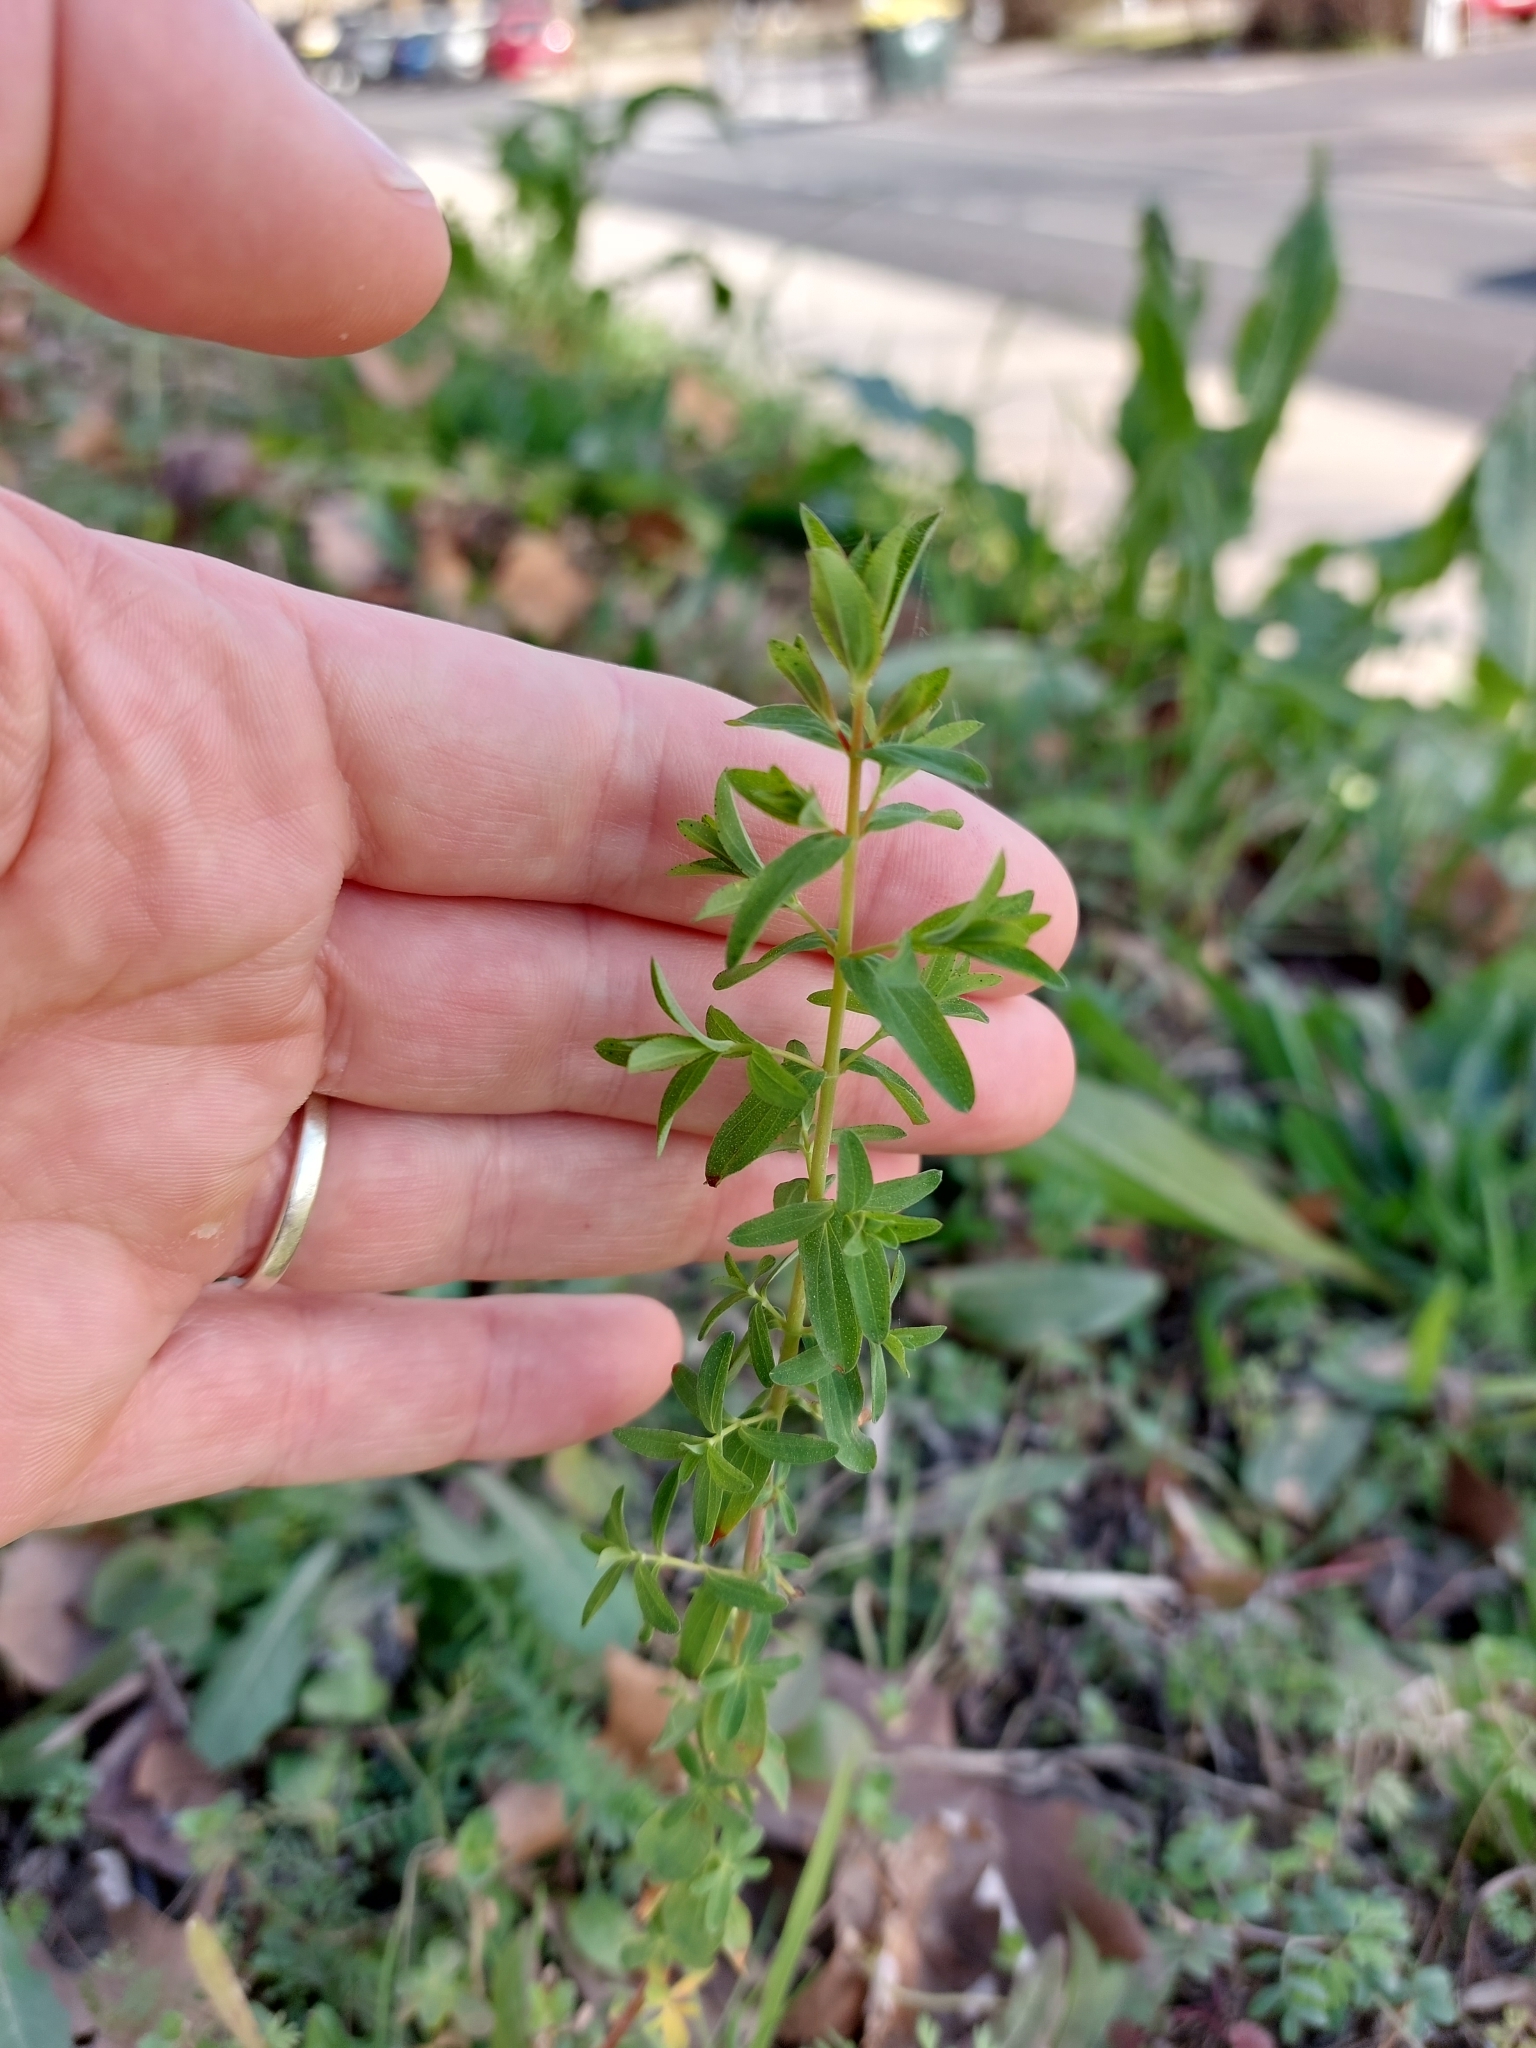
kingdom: Plantae
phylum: Tracheophyta
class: Magnoliopsida
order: Malpighiales
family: Hypericaceae
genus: Hypericum
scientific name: Hypericum perforatum
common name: Common st. johnswort
